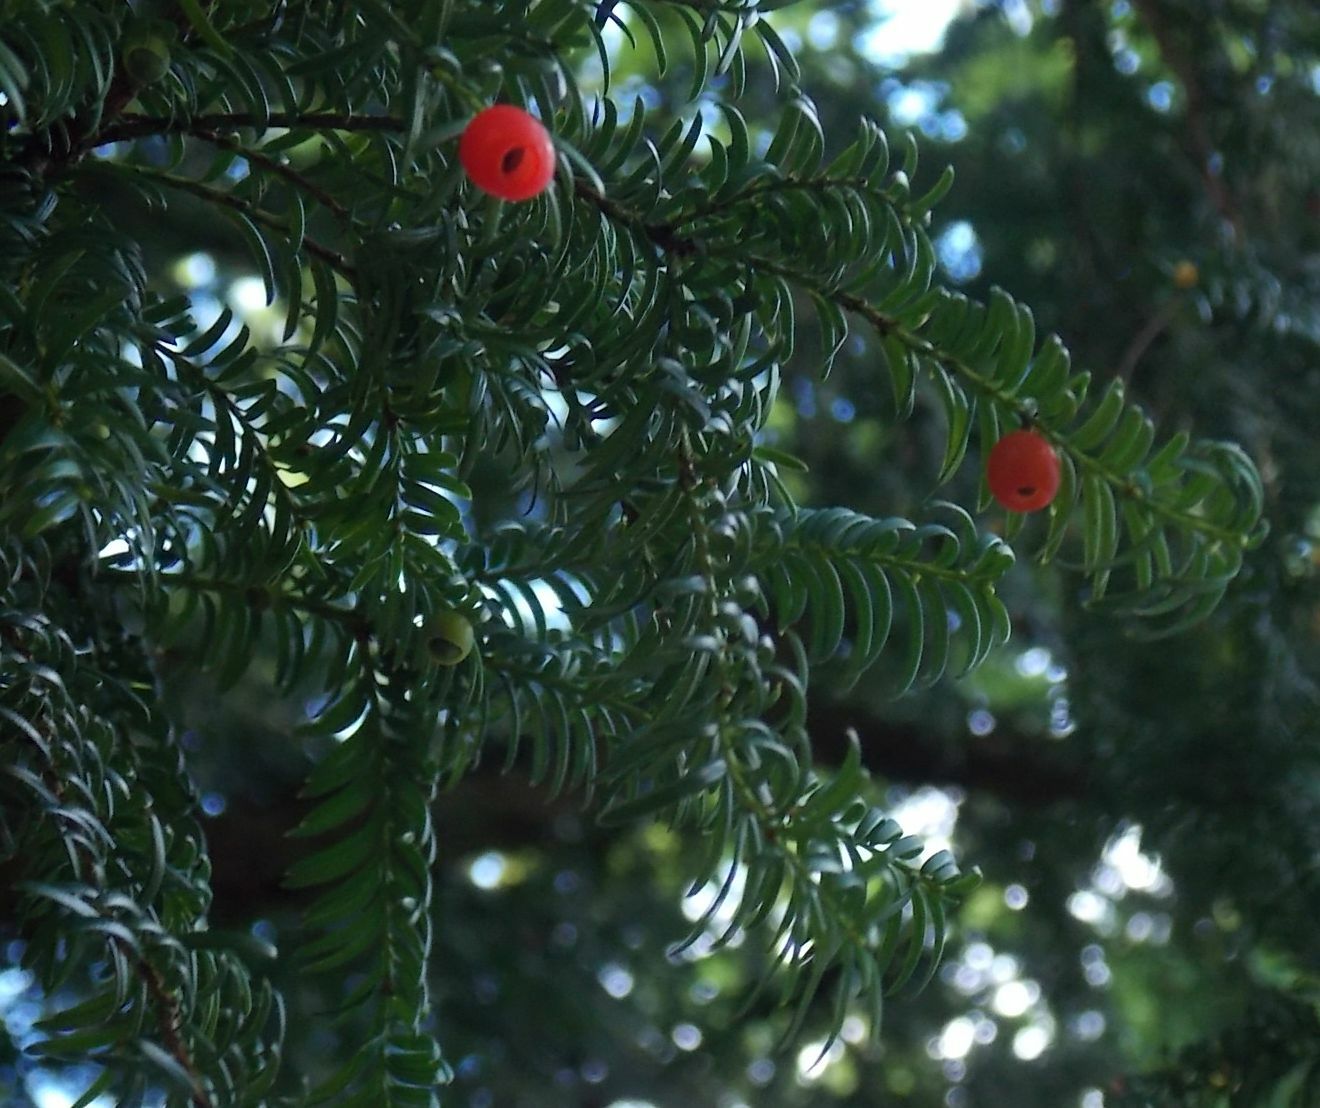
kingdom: Plantae
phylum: Tracheophyta
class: Pinopsida
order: Pinales
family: Taxaceae
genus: Taxus
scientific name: Taxus baccata
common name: Yew
